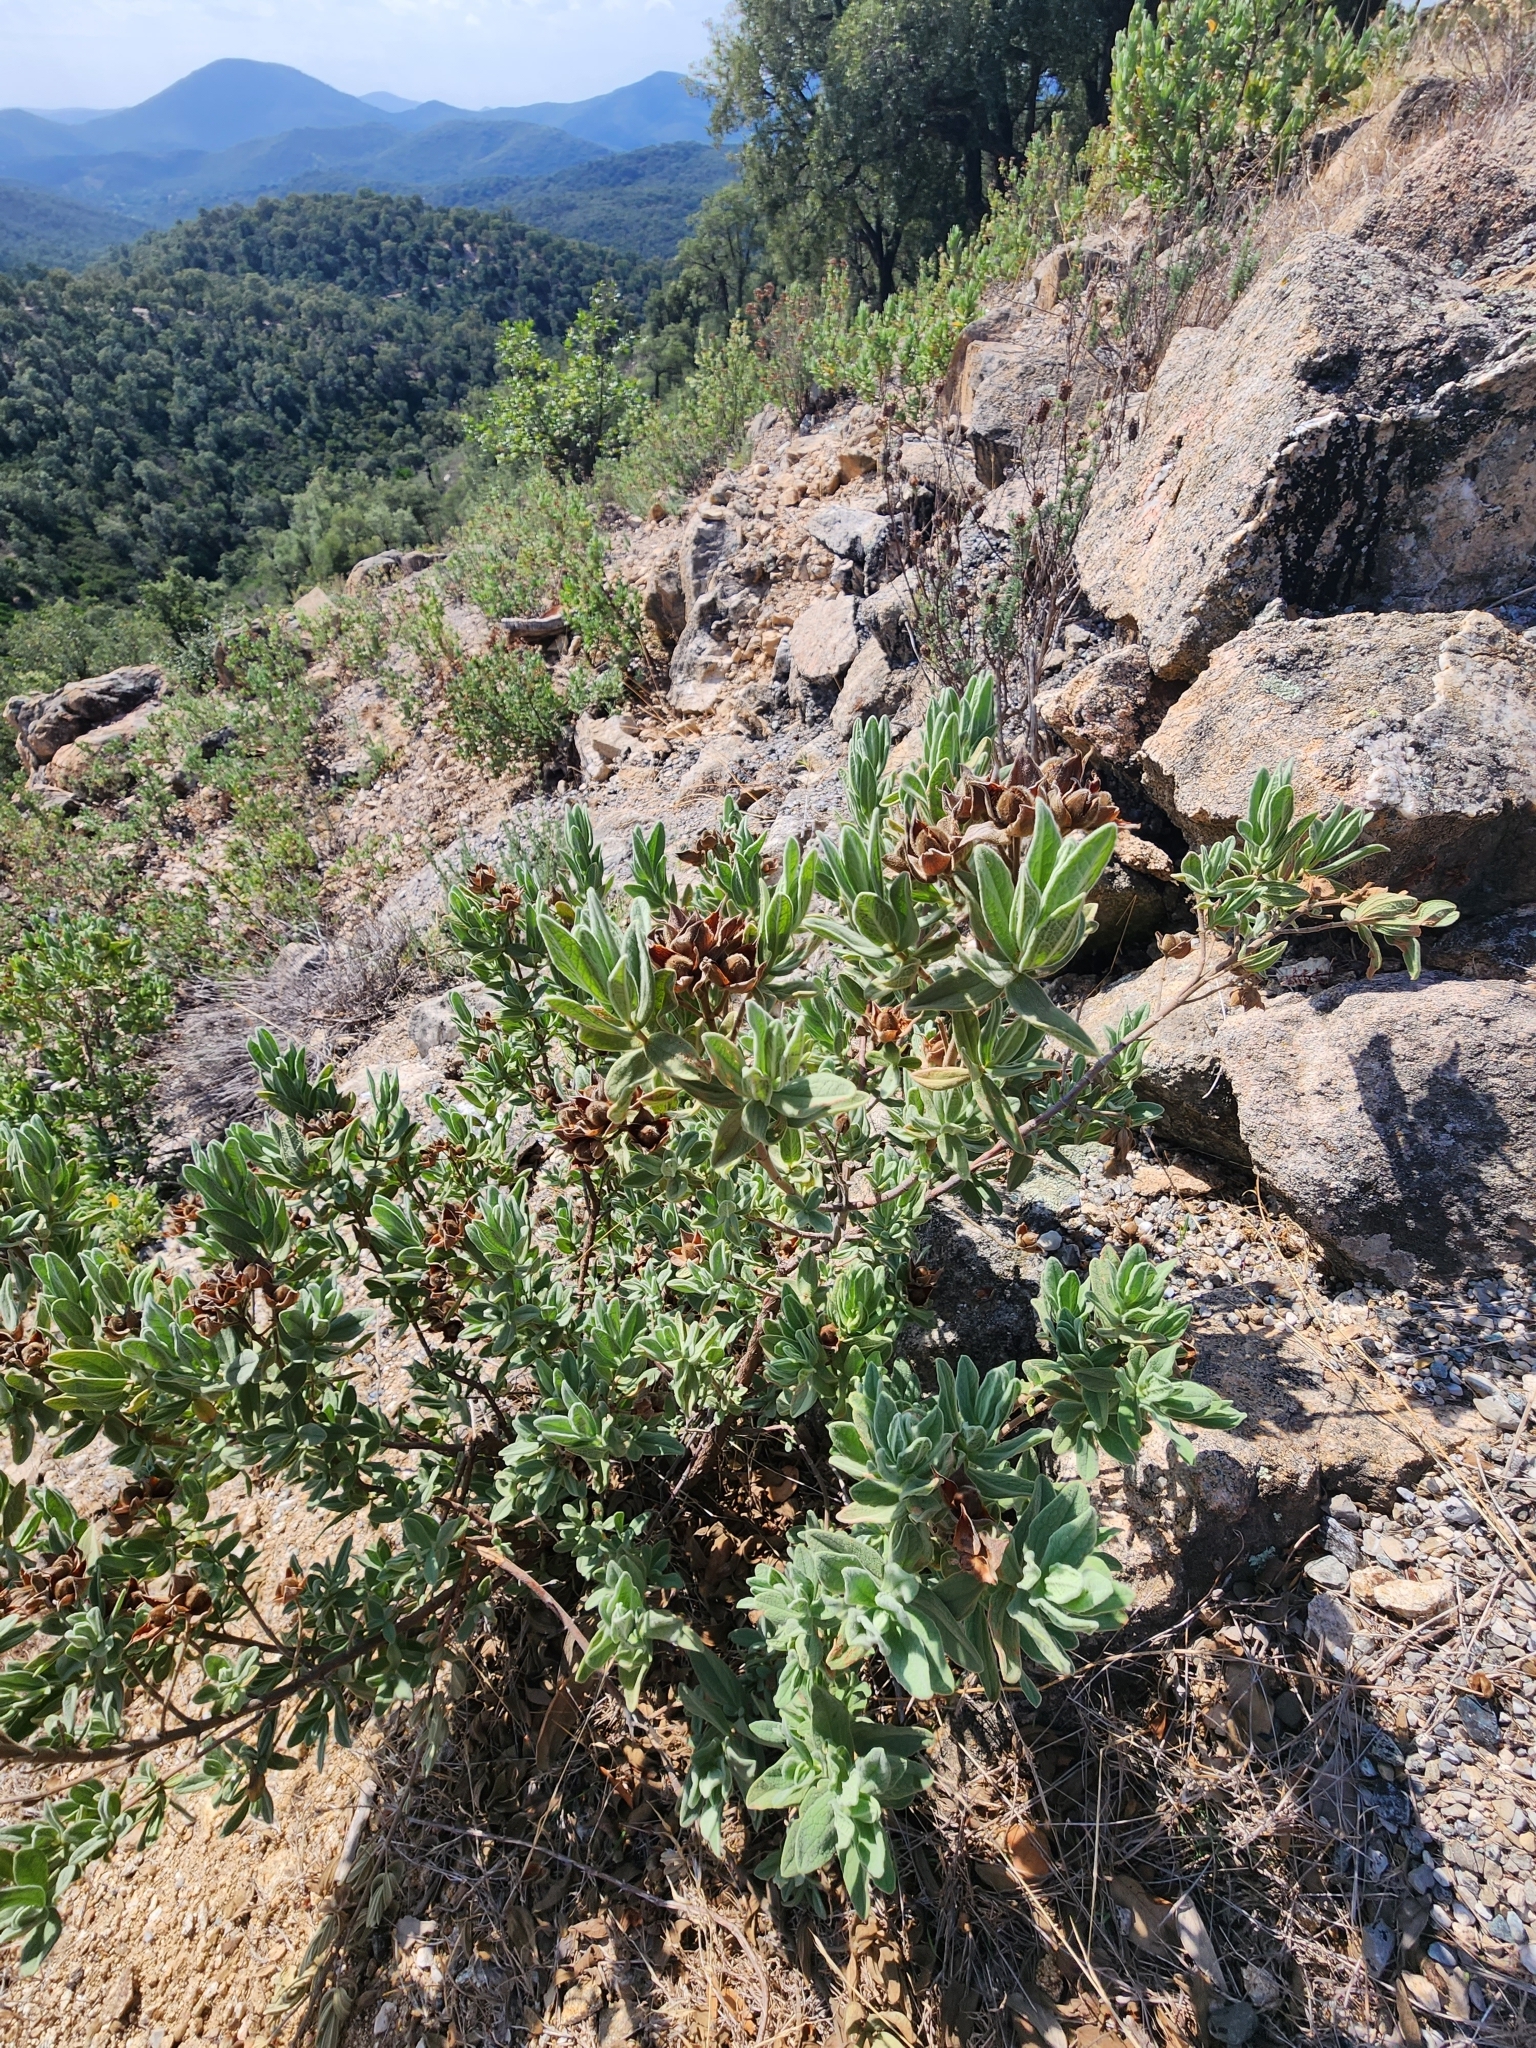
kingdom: Plantae
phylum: Tracheophyta
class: Magnoliopsida
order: Malvales
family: Cistaceae
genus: Cistus
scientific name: Cistus albidus
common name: White-leaf rock-rose
